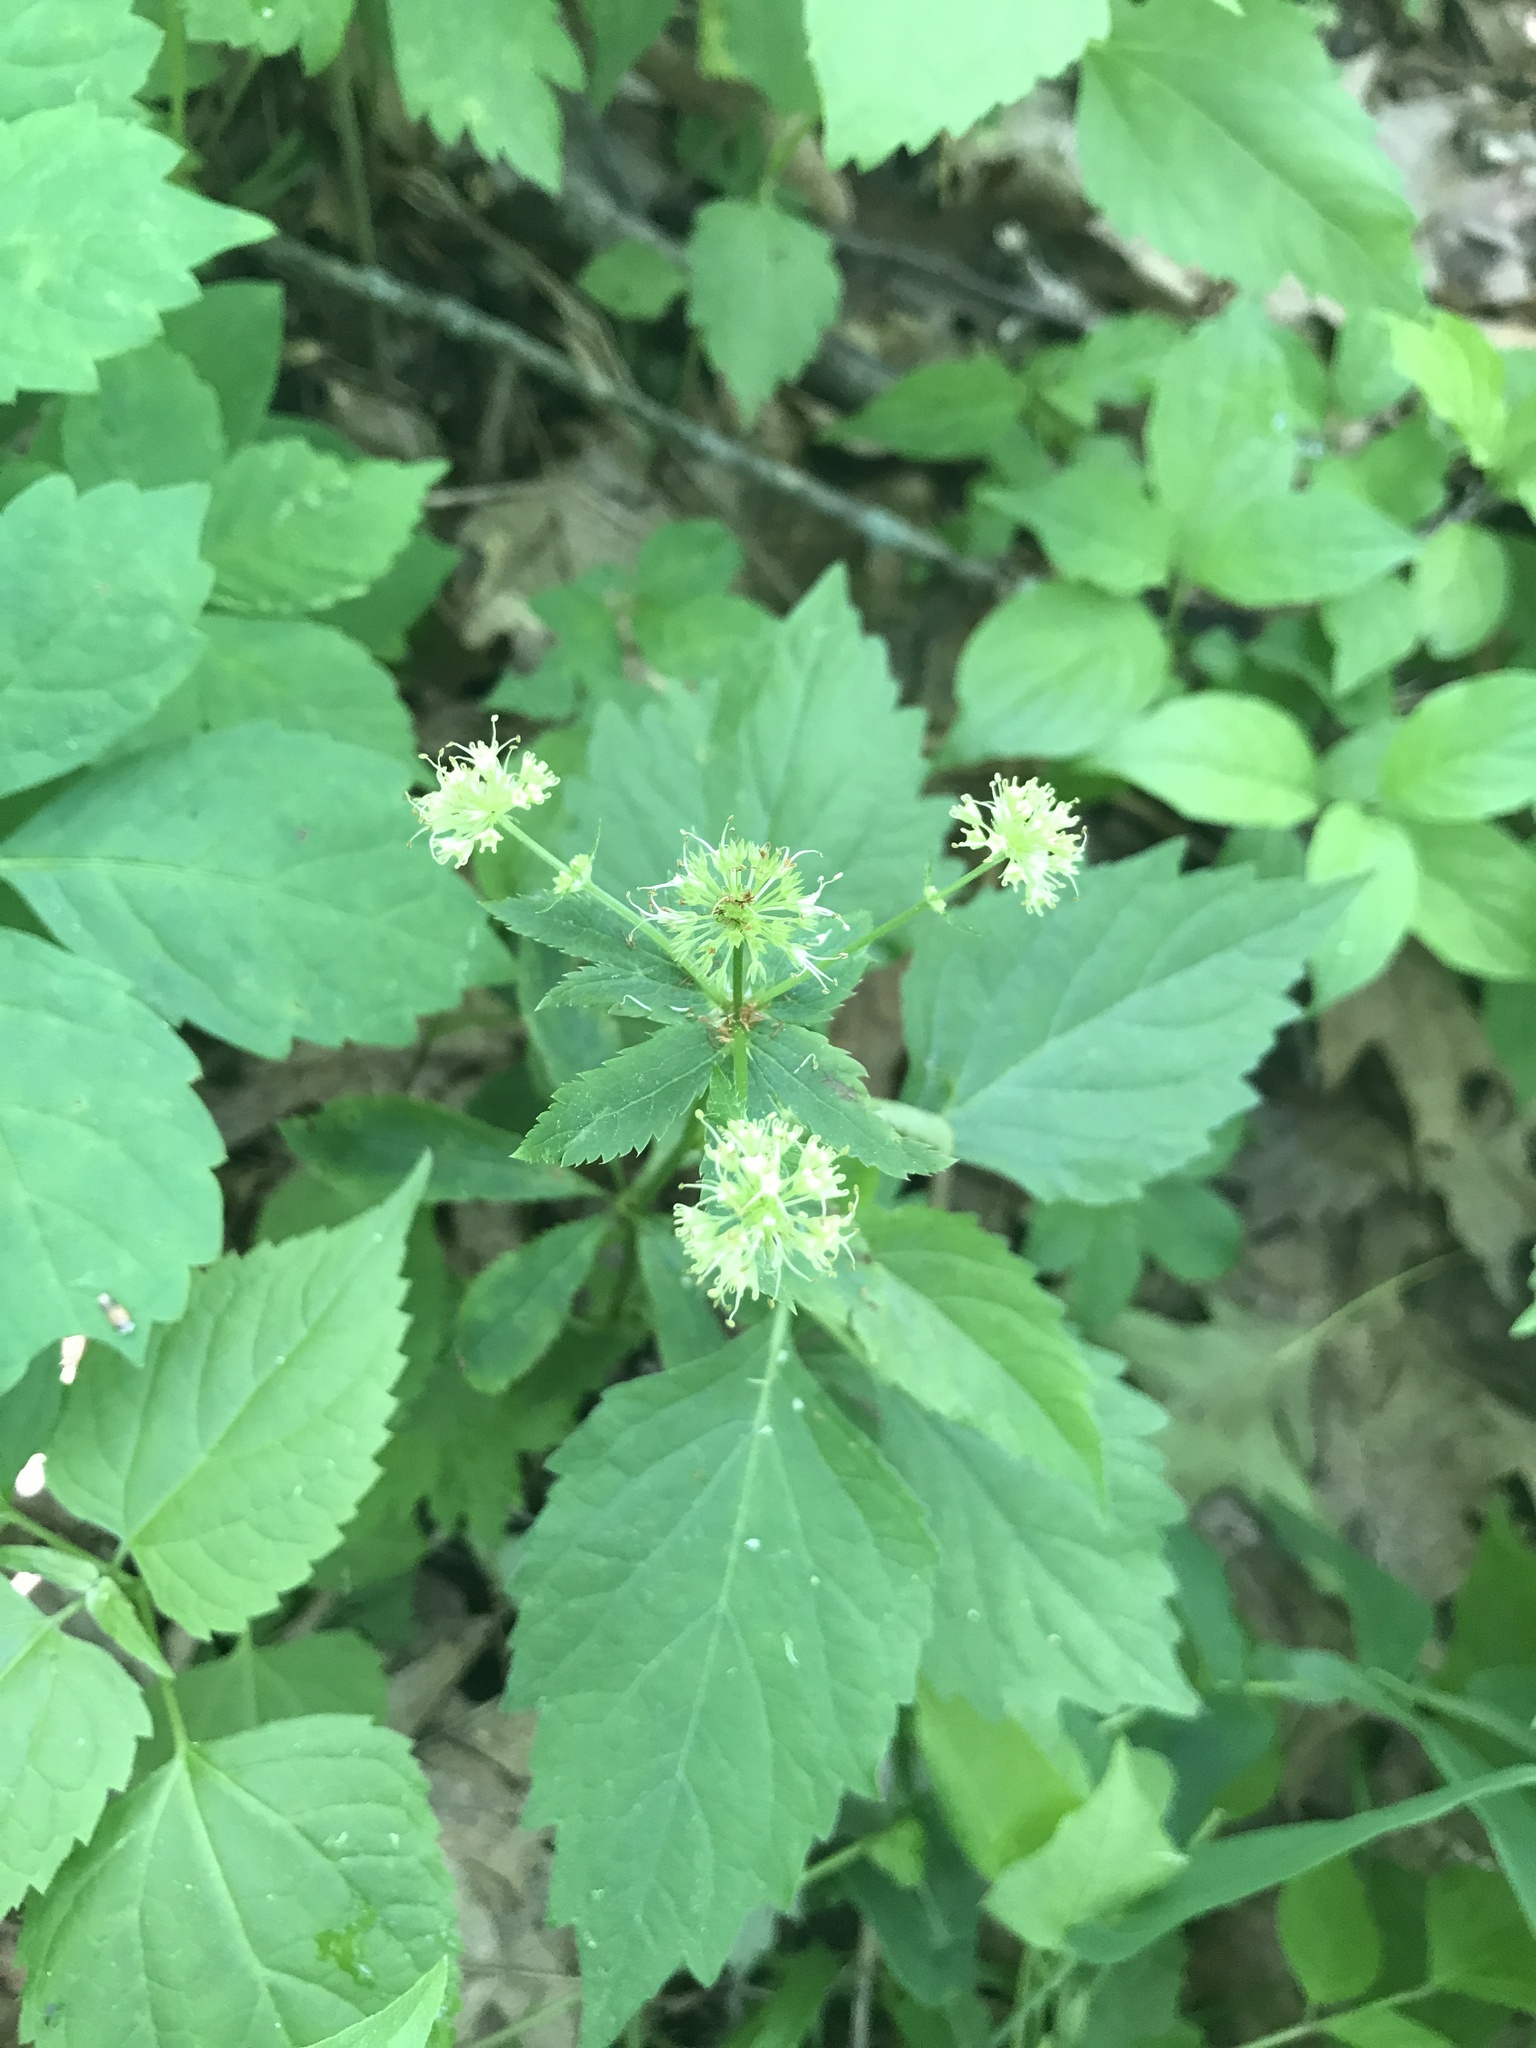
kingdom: Plantae
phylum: Tracheophyta
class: Magnoliopsida
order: Apiales
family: Apiaceae
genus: Sanicula
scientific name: Sanicula marilandica
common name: Black snakeroot
